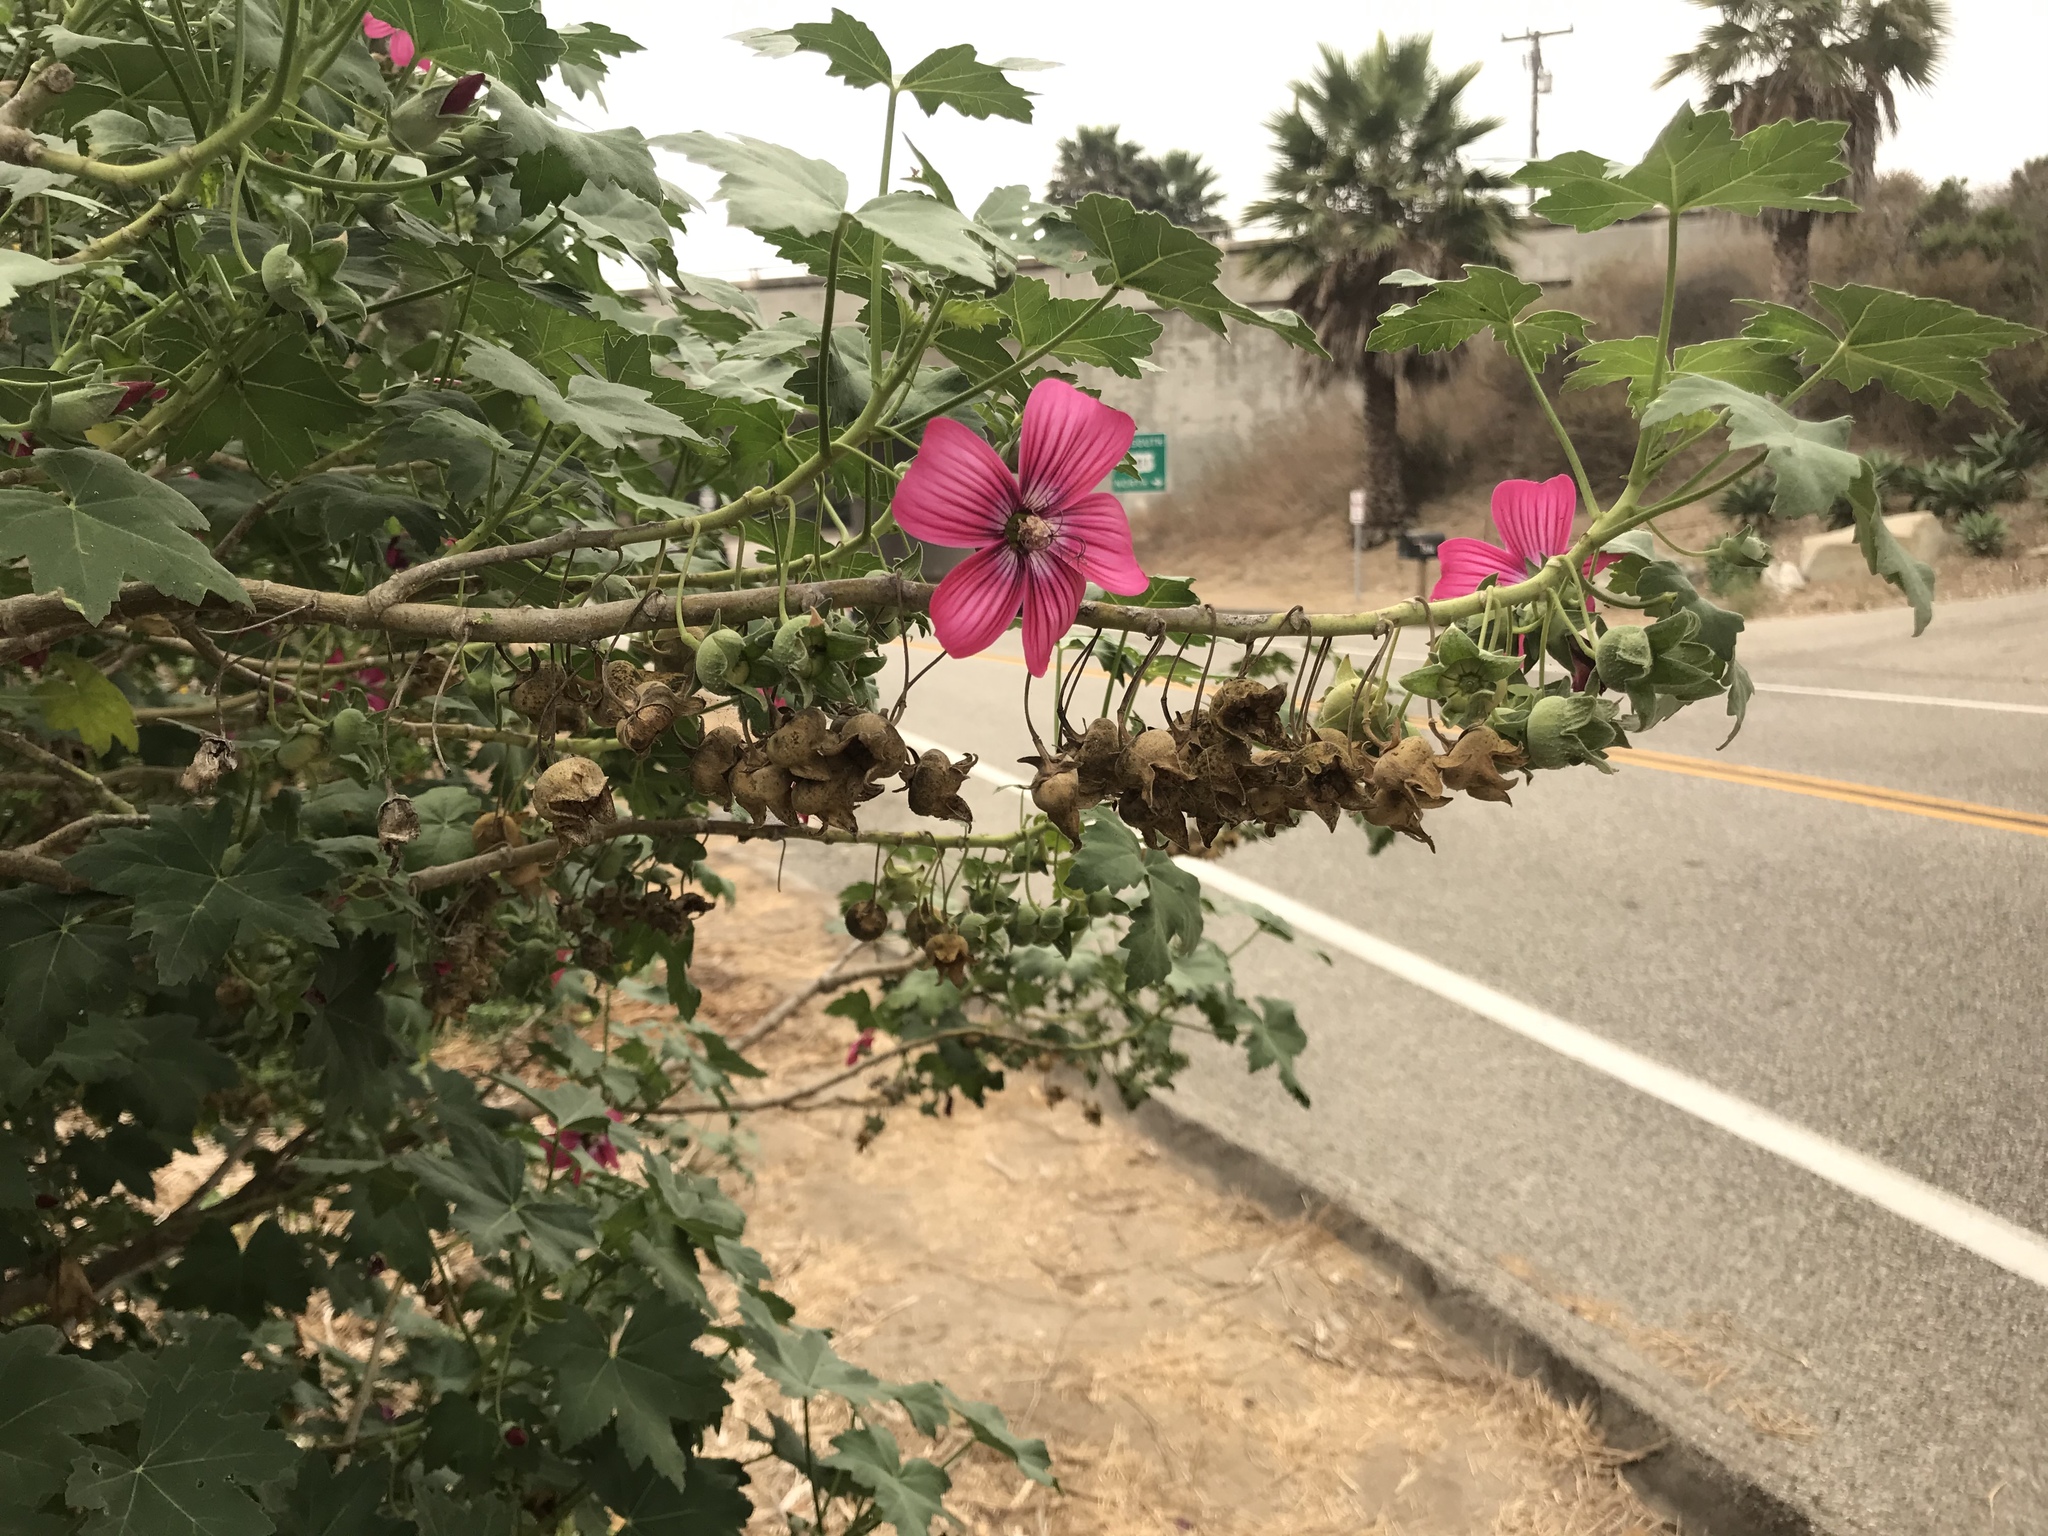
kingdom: Plantae
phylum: Tracheophyta
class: Magnoliopsida
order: Malvales
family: Malvaceae
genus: Malva
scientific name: Malva assurgentiflora
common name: Island mallow
